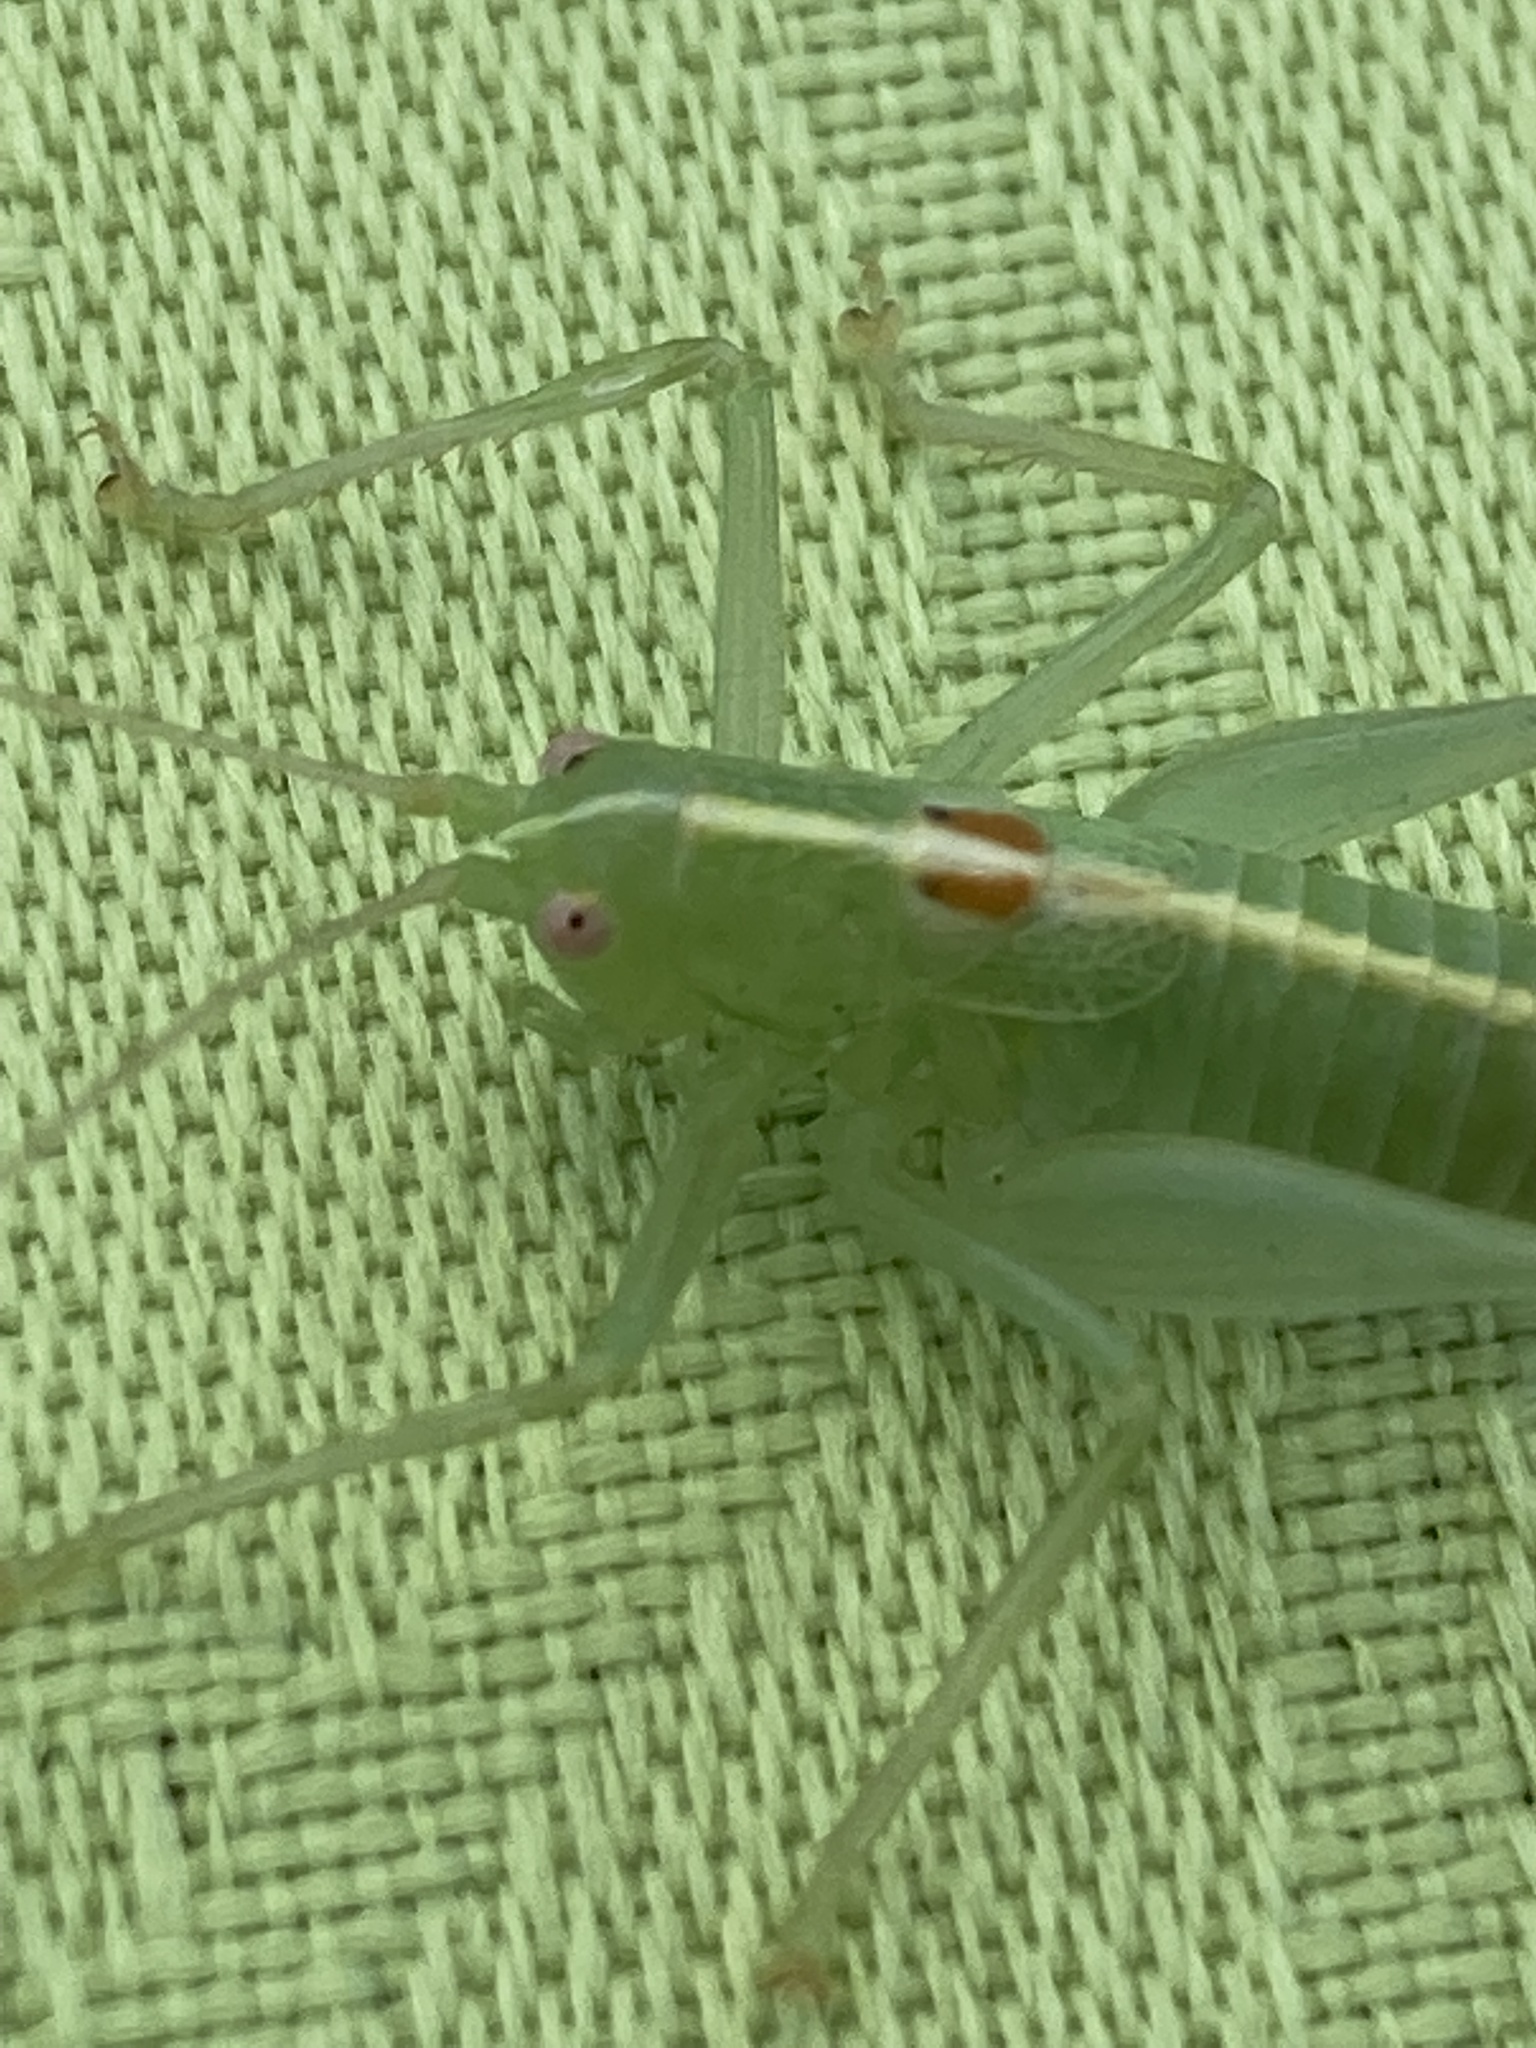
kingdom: Animalia
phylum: Arthropoda
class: Insecta
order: Orthoptera
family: Tettigoniidae
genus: Meconema
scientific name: Meconema meridionale
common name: Southern oak bush-cricket
